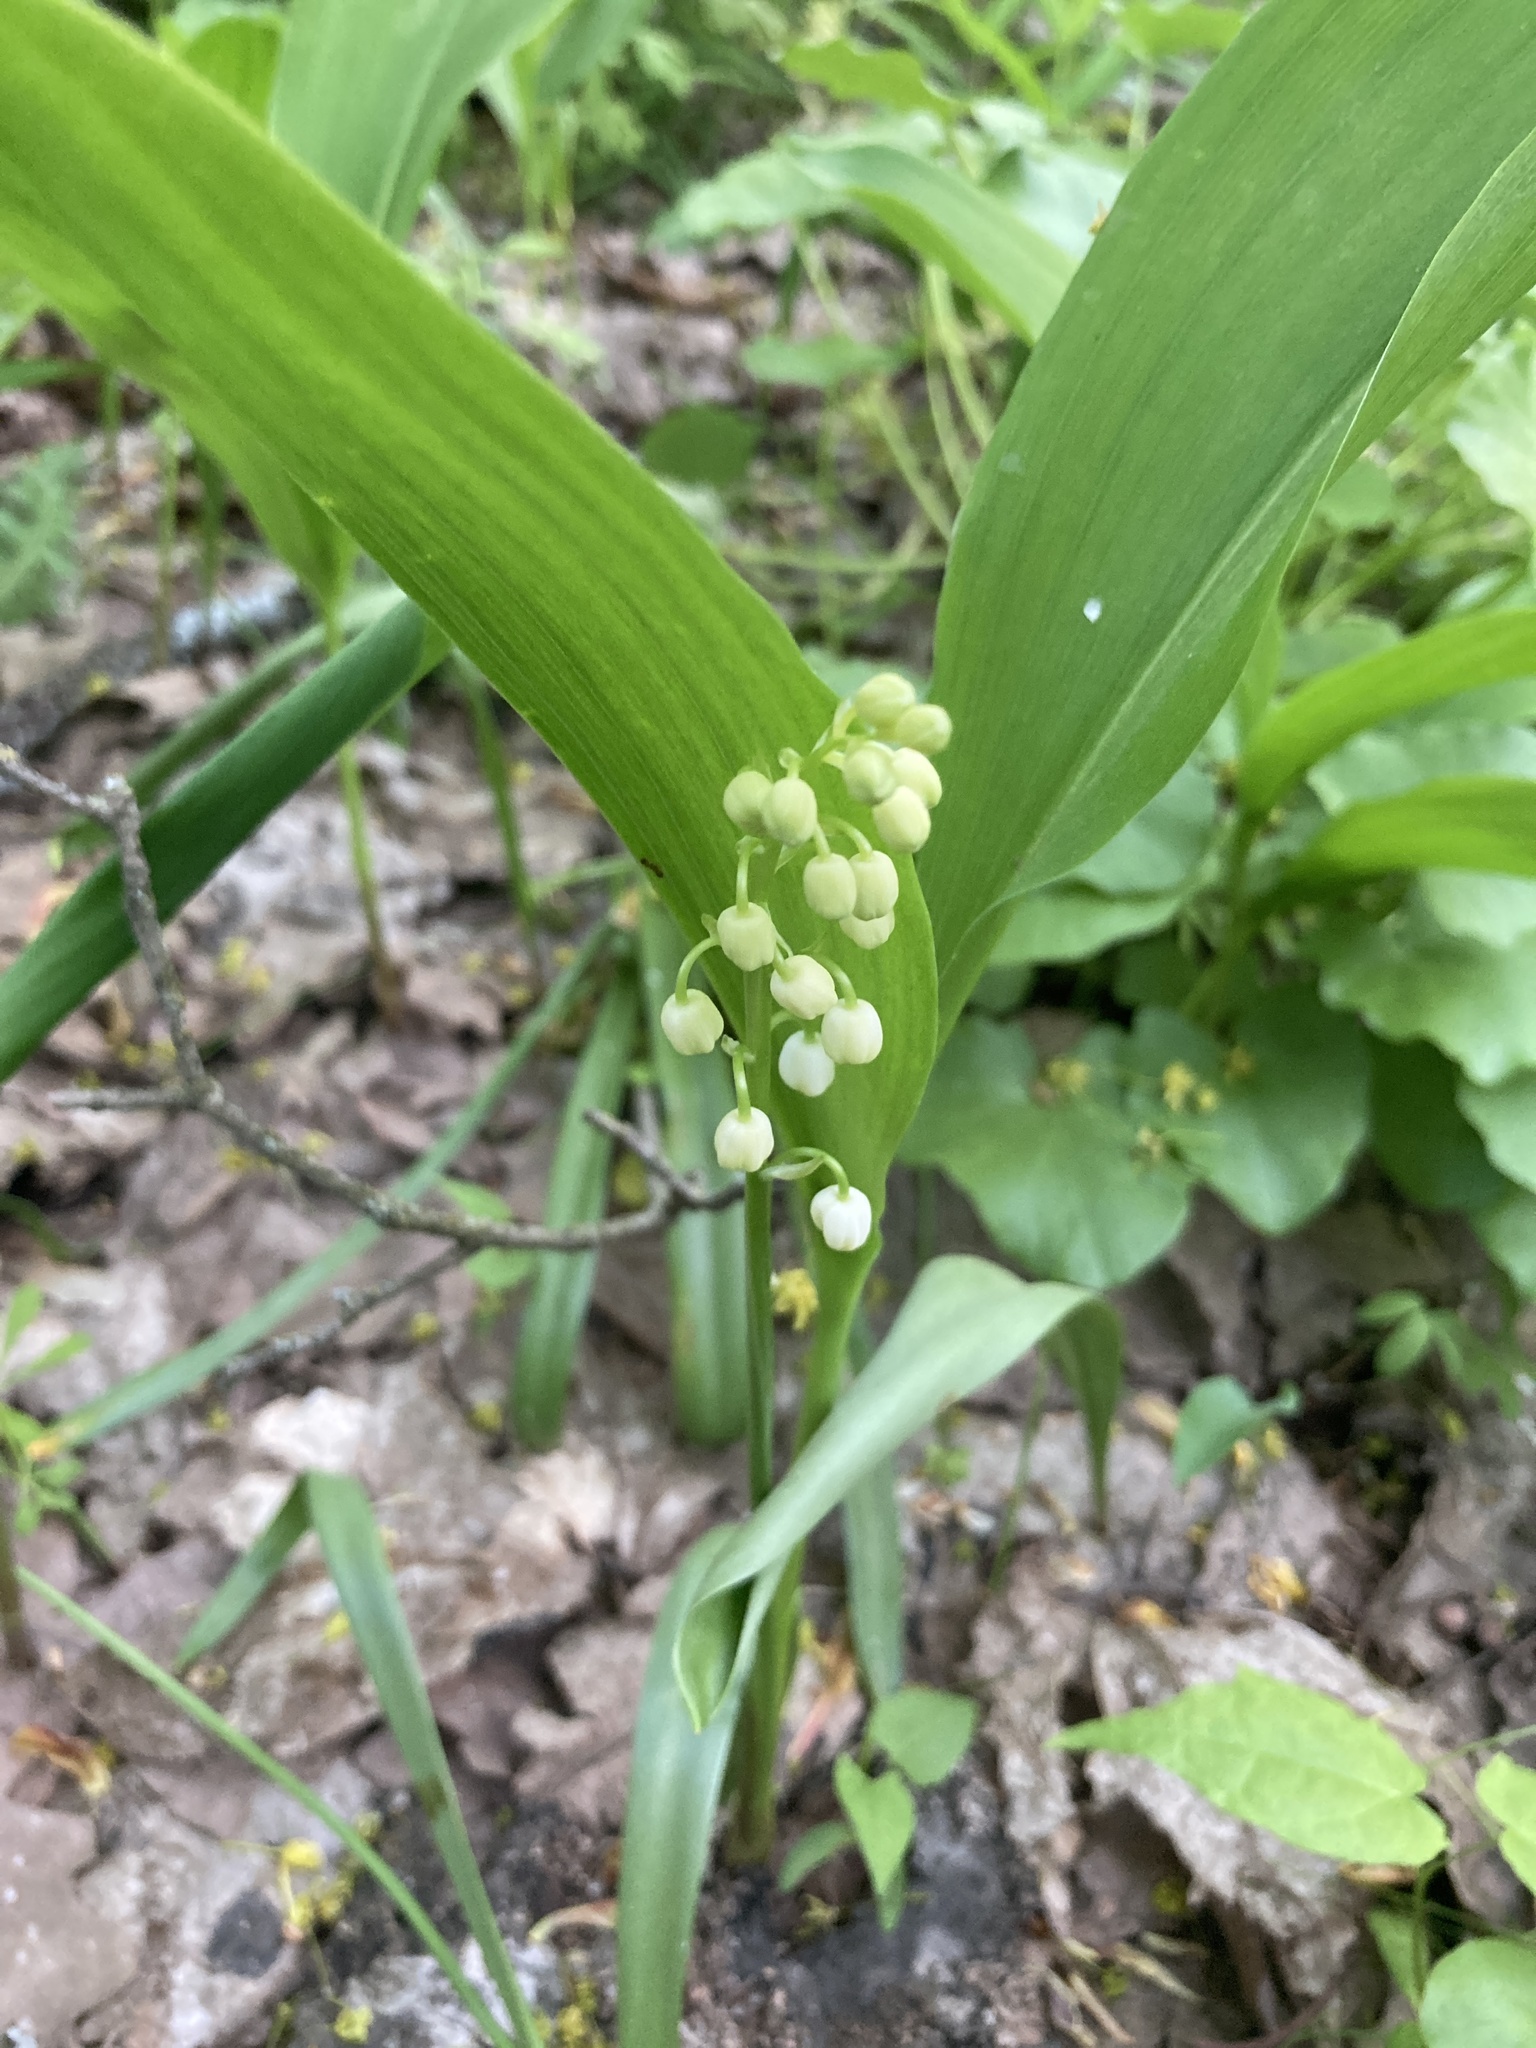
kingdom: Plantae
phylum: Tracheophyta
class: Liliopsida
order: Asparagales
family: Asparagaceae
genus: Convallaria
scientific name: Convallaria majalis
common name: Lily-of-the-valley
